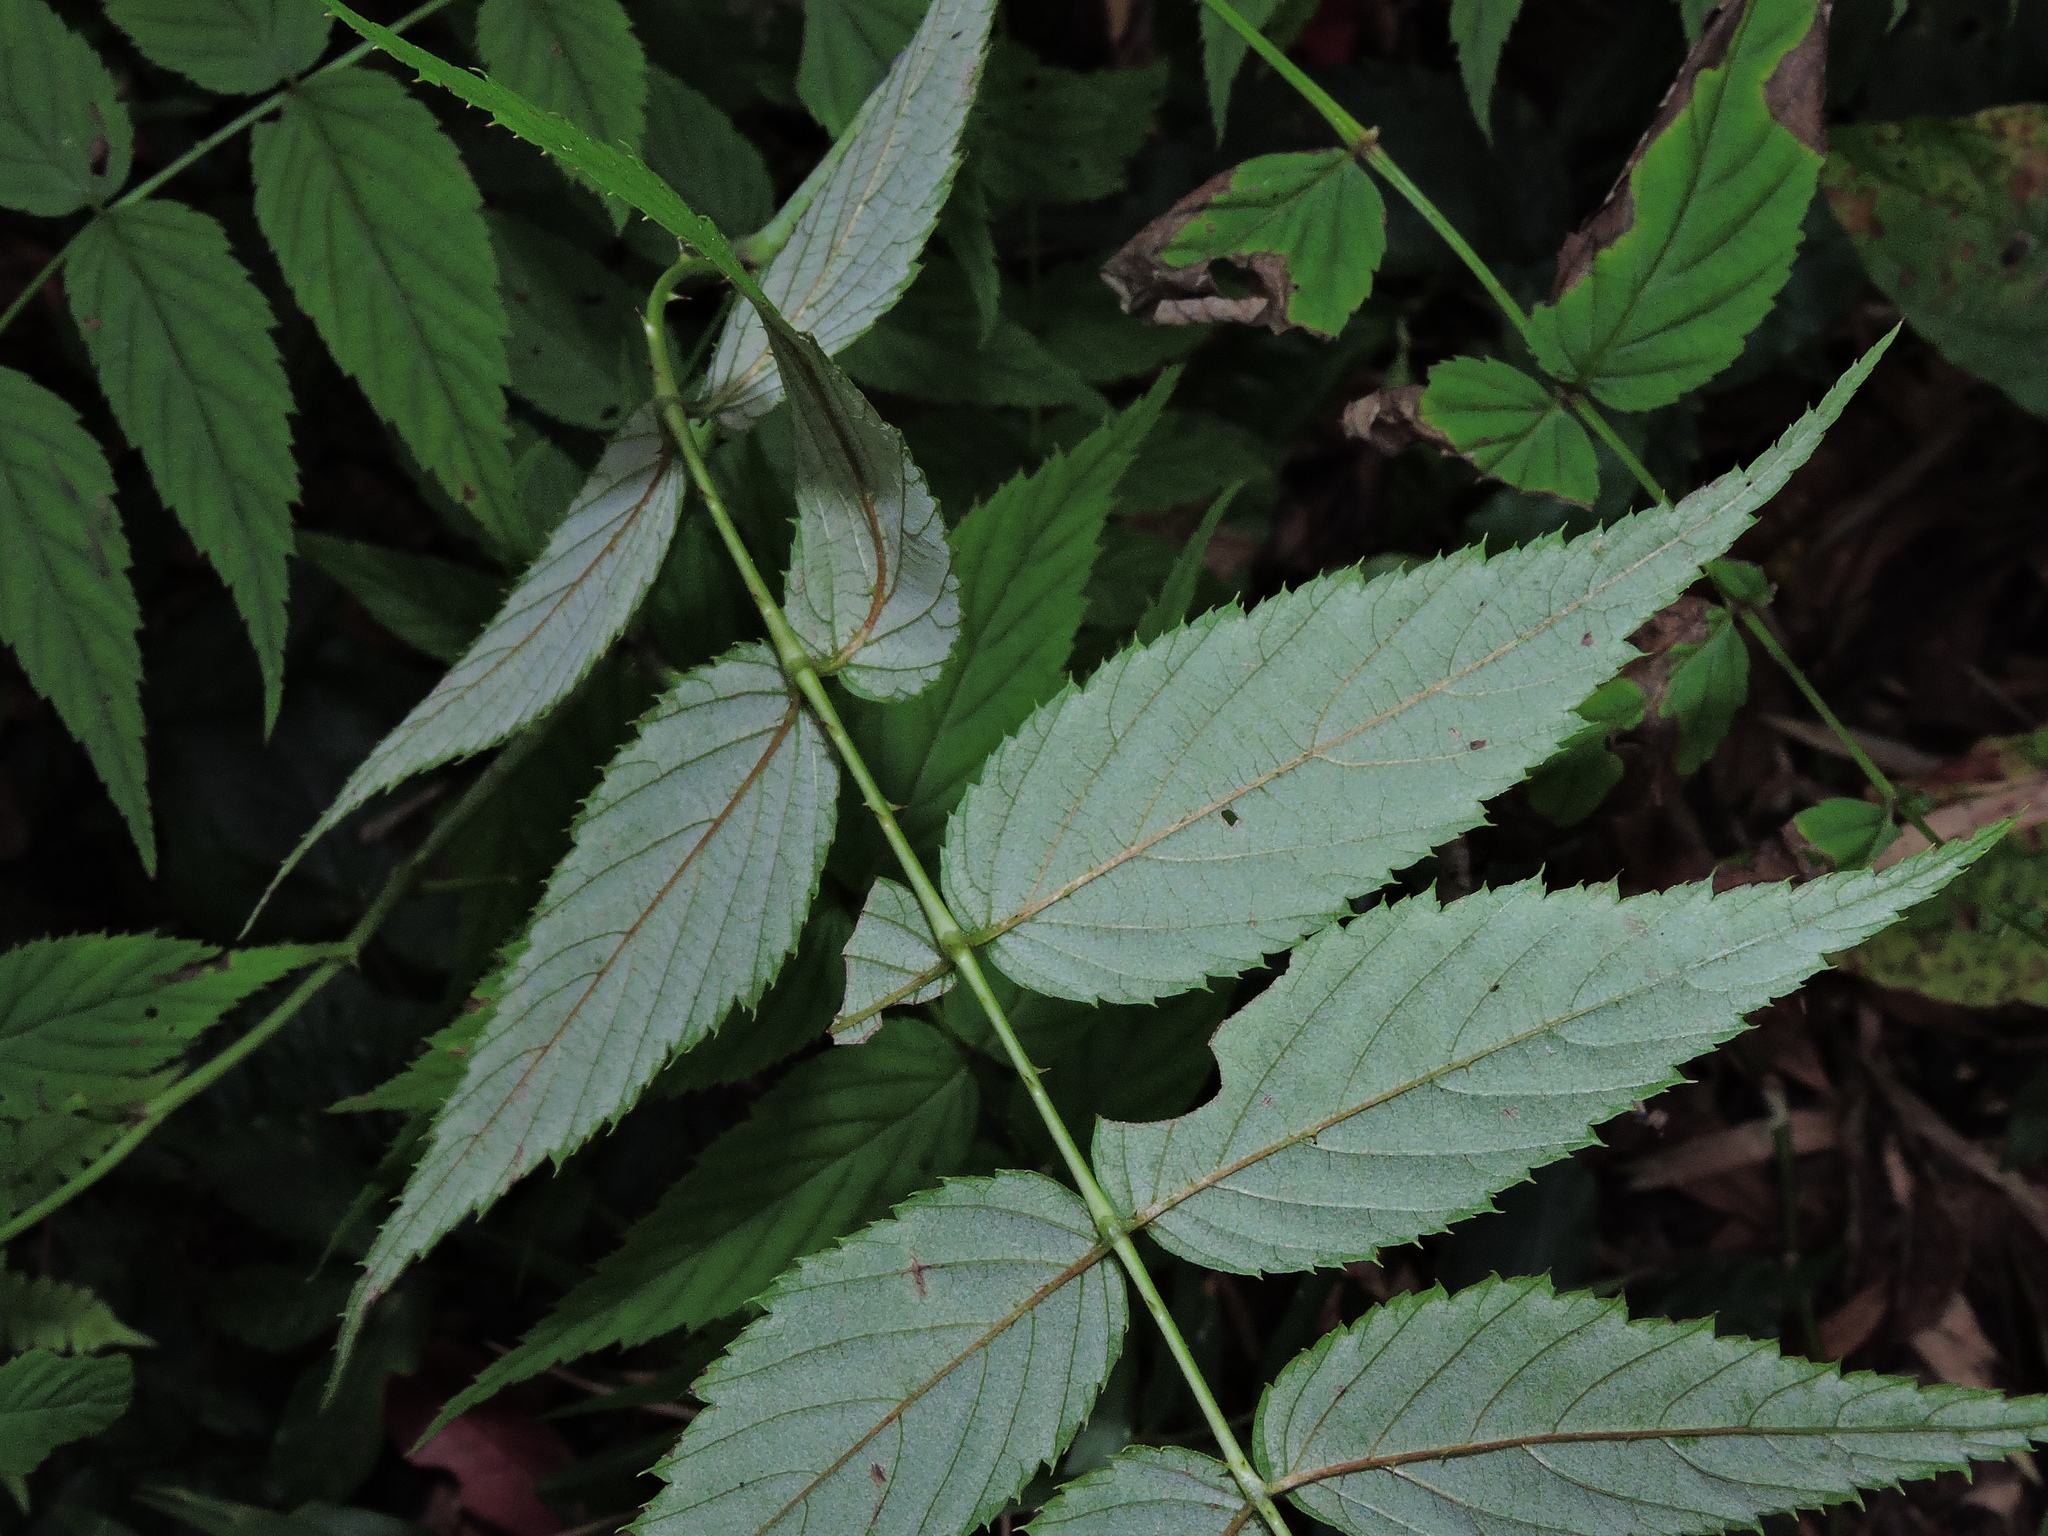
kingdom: Plantae
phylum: Tracheophyta
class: Magnoliopsida
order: Rosales
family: Rosaceae
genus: Rubus
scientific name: Rubus inopertus
